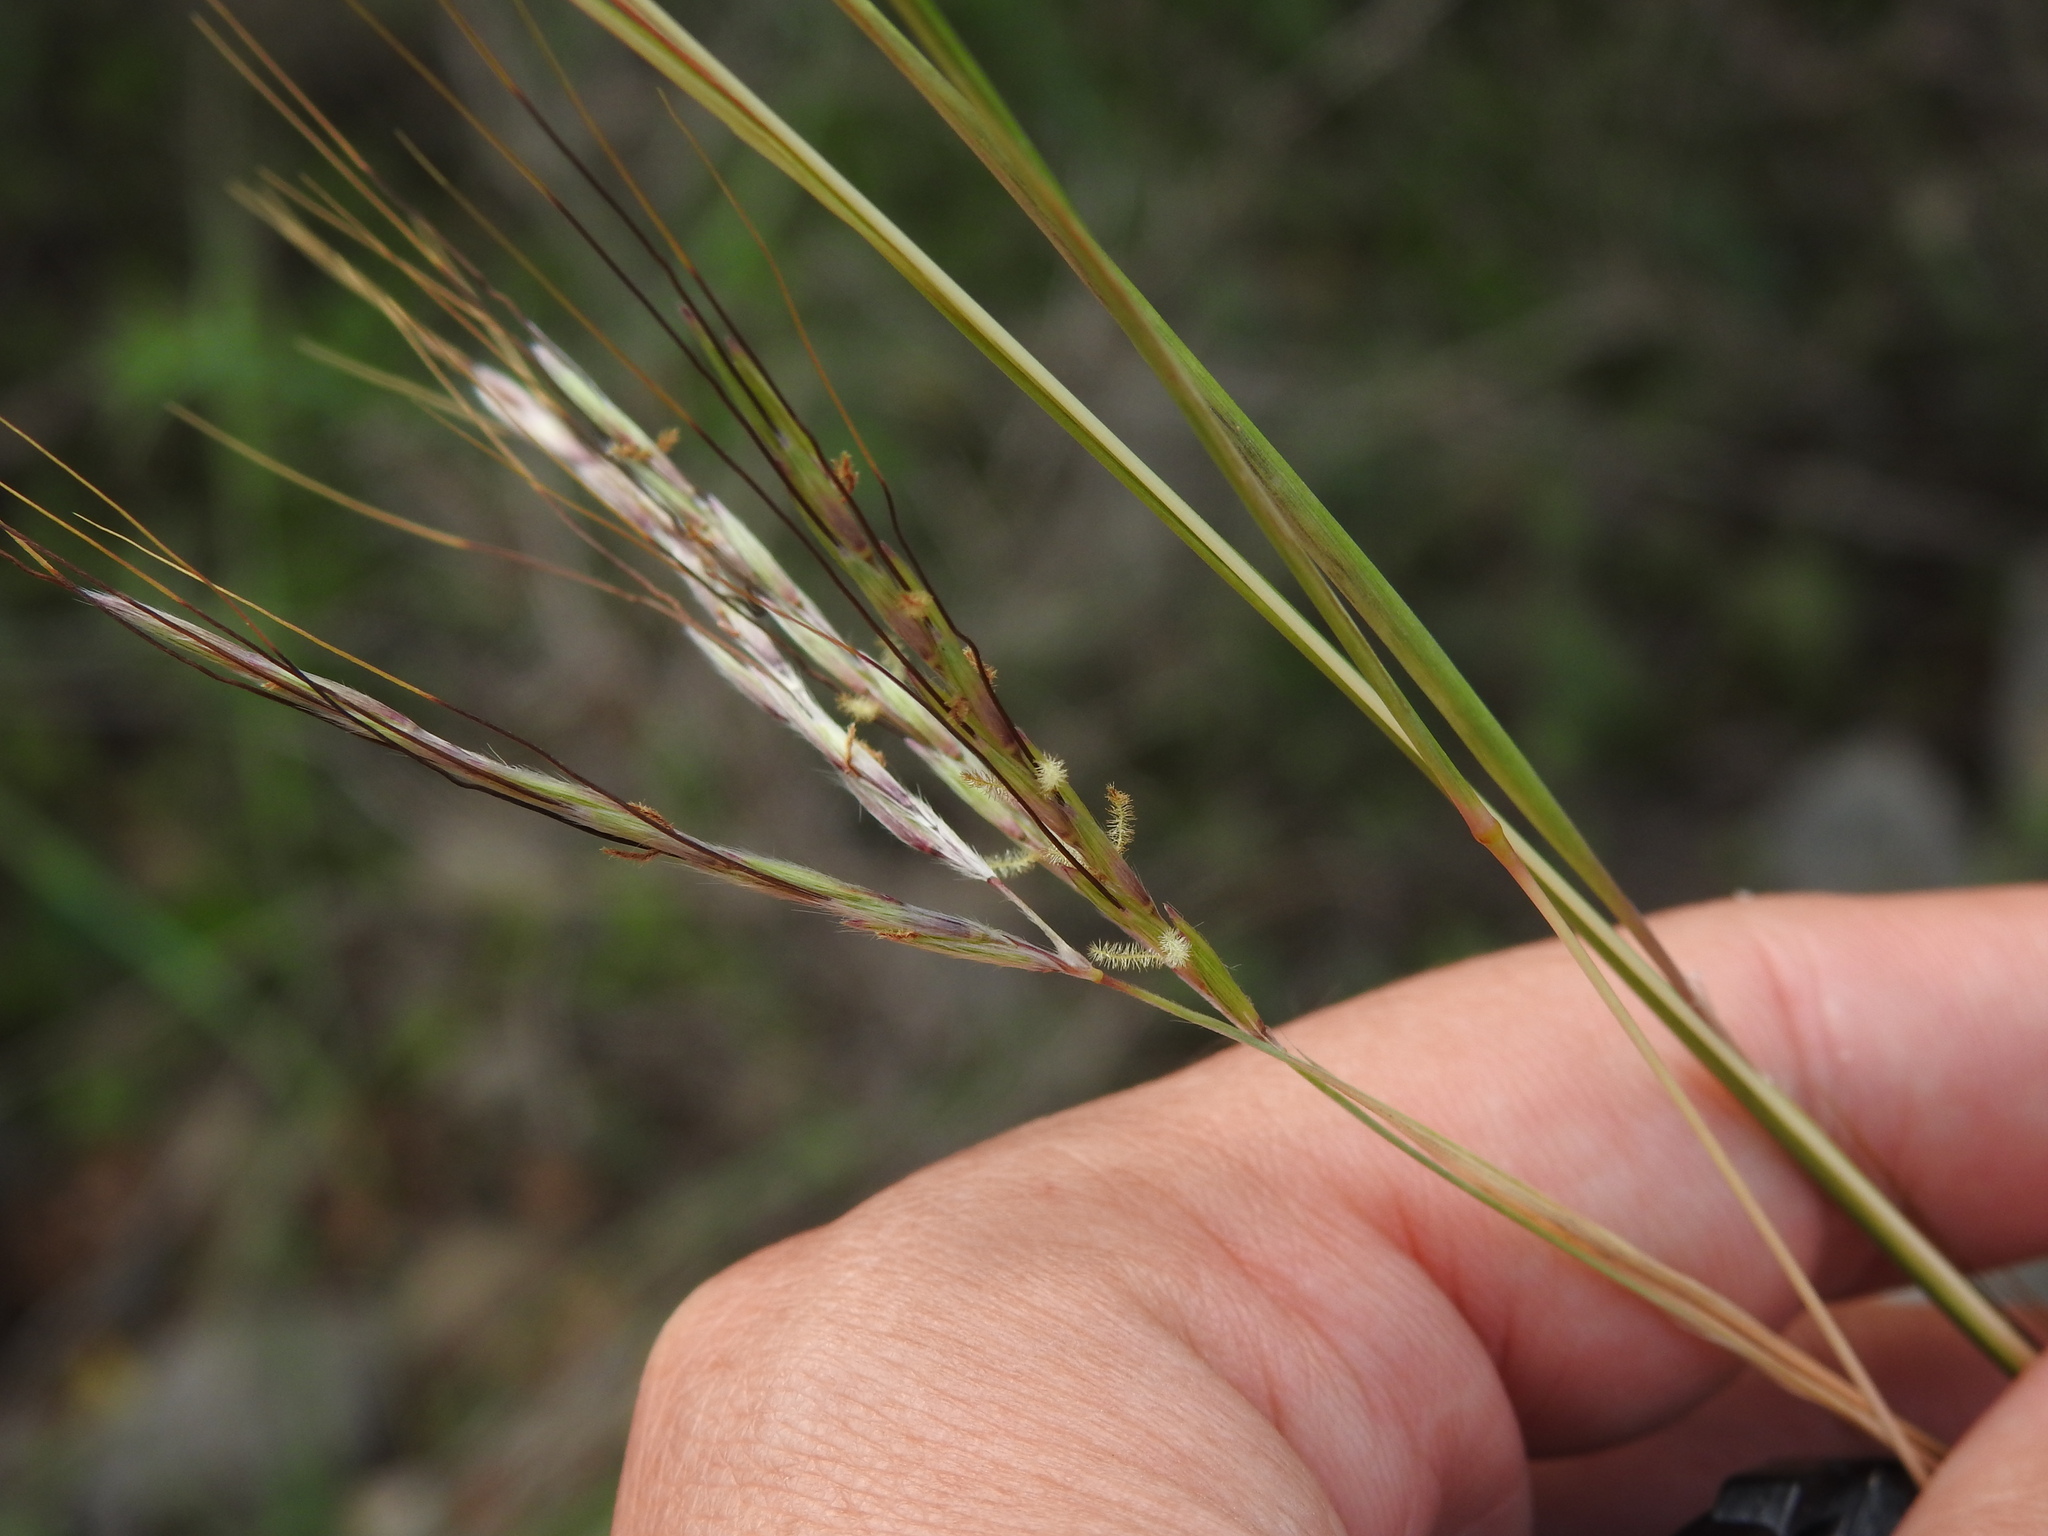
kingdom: Plantae
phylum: Tracheophyta
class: Liliopsida
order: Poales
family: Poaceae
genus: Hyparrhenia
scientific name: Hyparrhenia hirta
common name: Thatching grass
